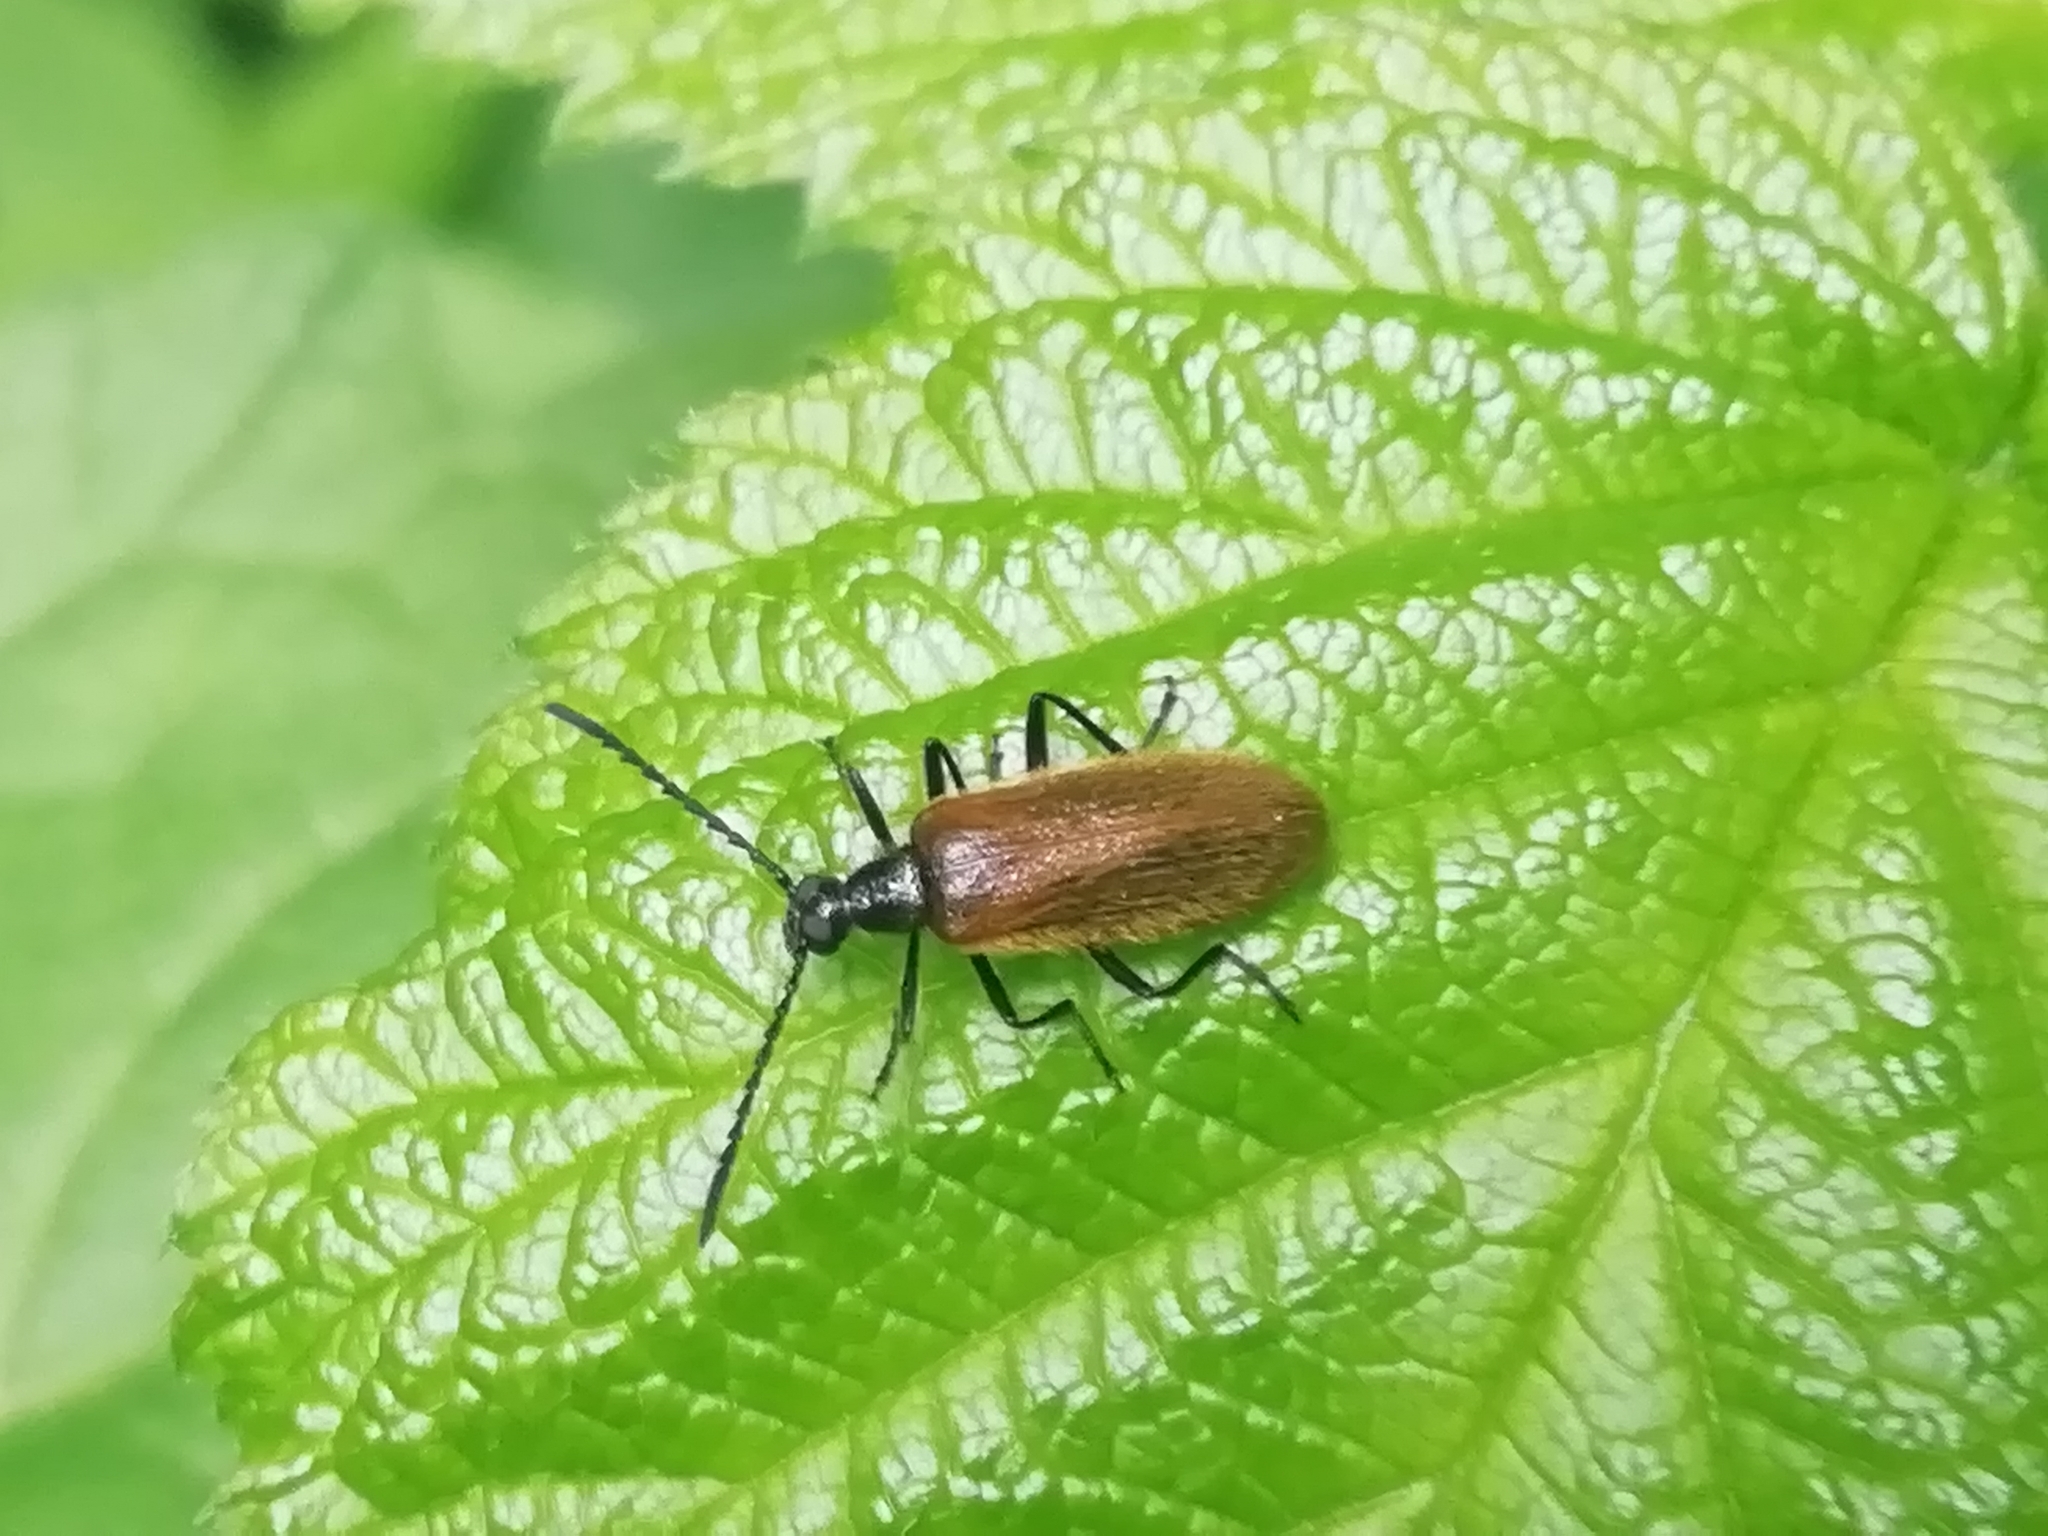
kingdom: Animalia
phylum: Arthropoda
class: Insecta
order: Coleoptera
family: Tenebrionidae
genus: Lagria
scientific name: Lagria hirta
